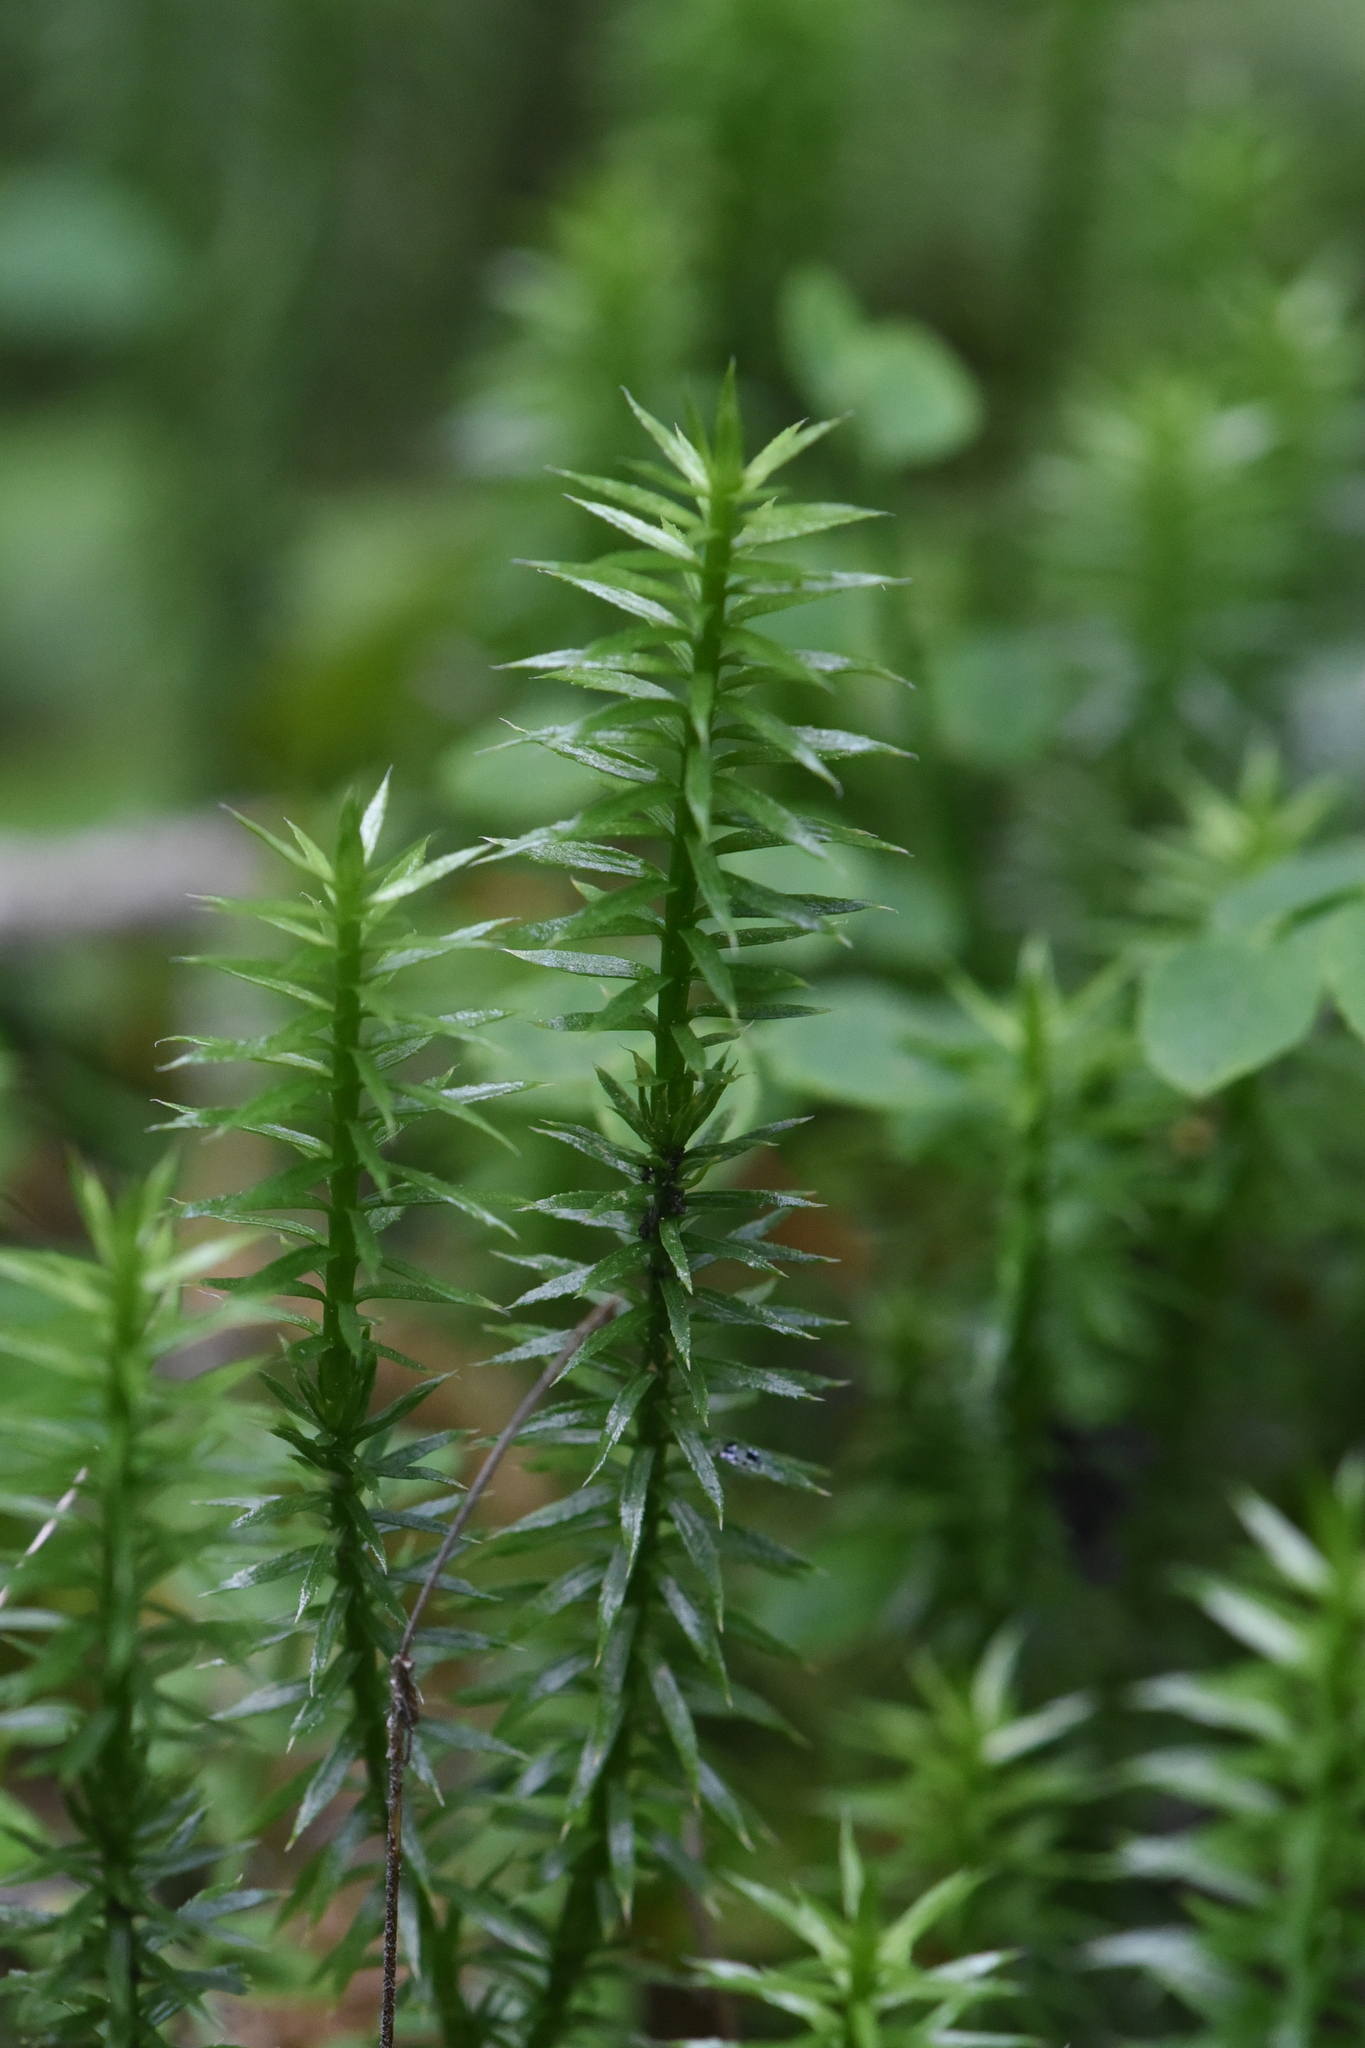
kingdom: Plantae
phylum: Tracheophyta
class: Lycopodiopsida
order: Lycopodiales
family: Lycopodiaceae
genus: Spinulum
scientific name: Spinulum annotinum
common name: Interrupted club-moss
